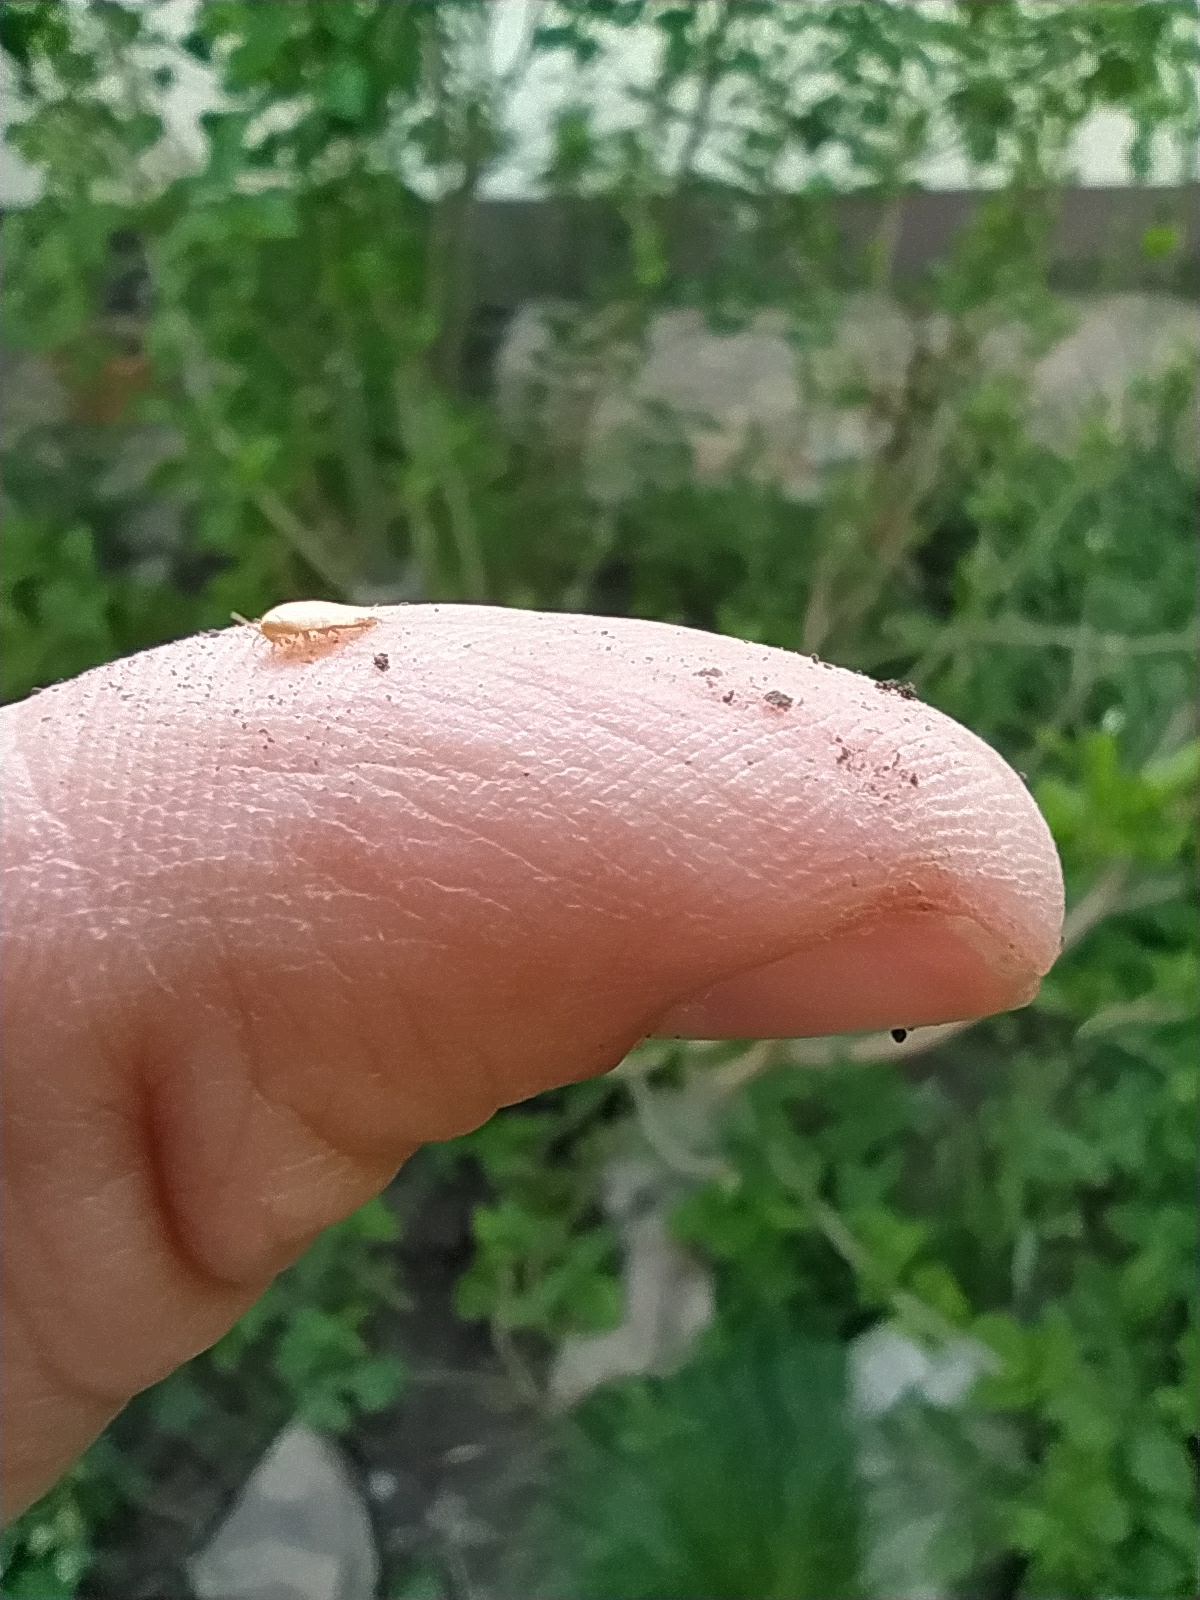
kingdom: Animalia
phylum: Arthropoda
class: Insecta
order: Zygentoma
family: Nicoletiidae
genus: Atelura
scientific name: Atelura formicaria
